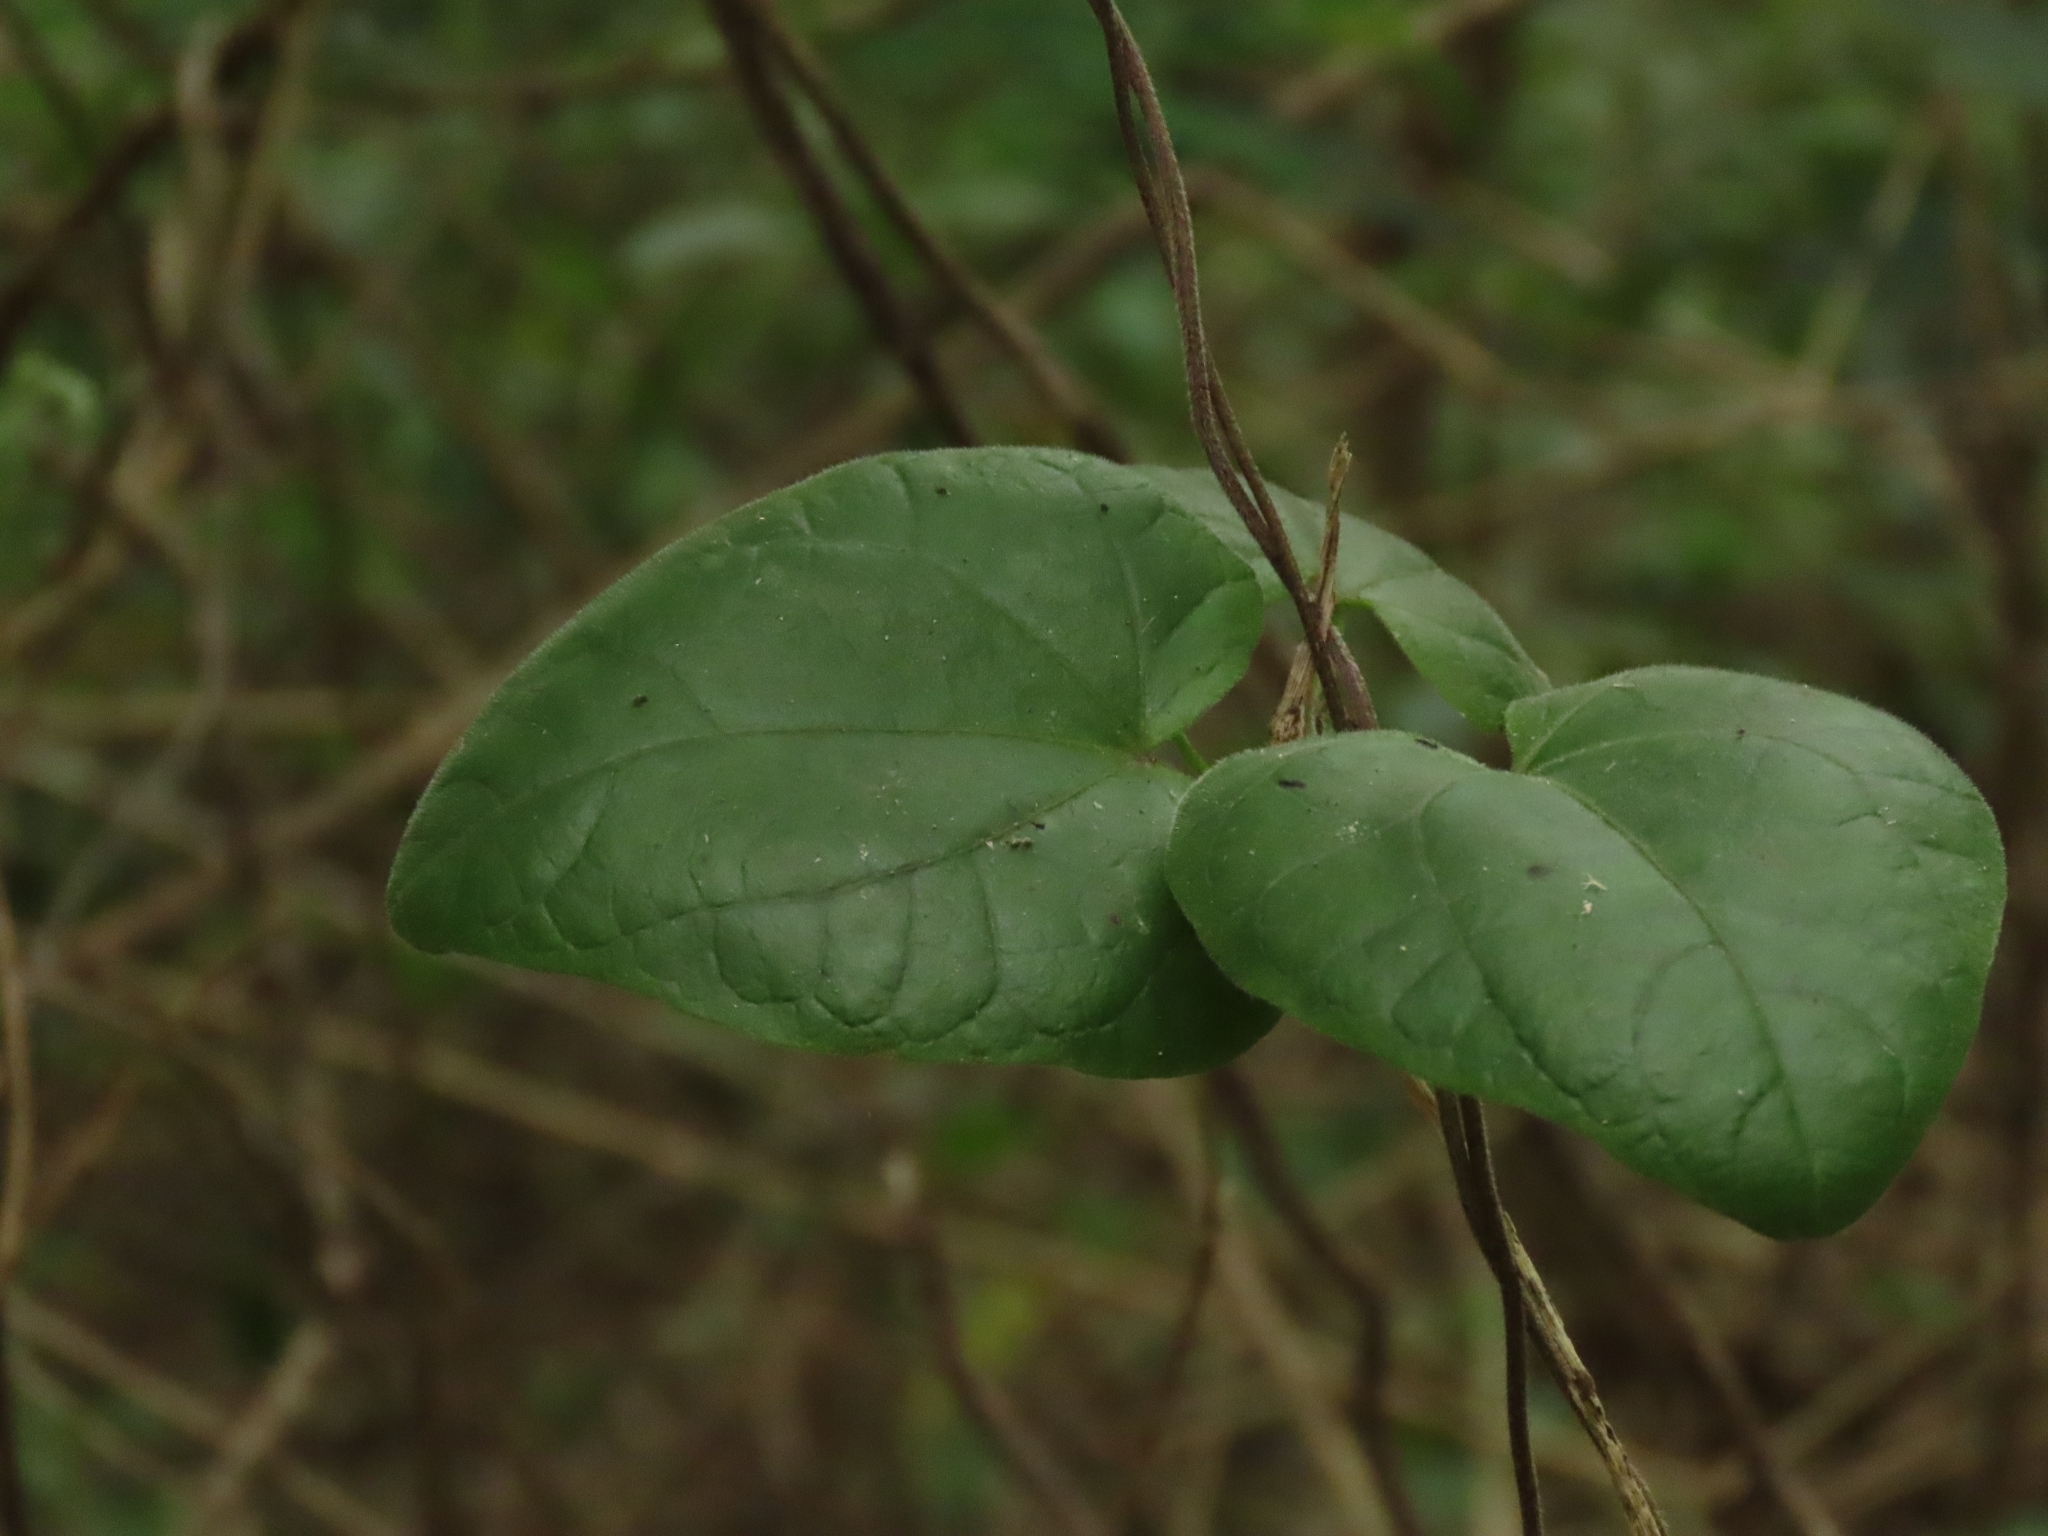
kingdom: Plantae
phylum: Tracheophyta
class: Magnoliopsida
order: Lamiales
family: Acanthaceae
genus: Thunbergia
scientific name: Thunbergia alata
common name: Blackeyed susan vine
